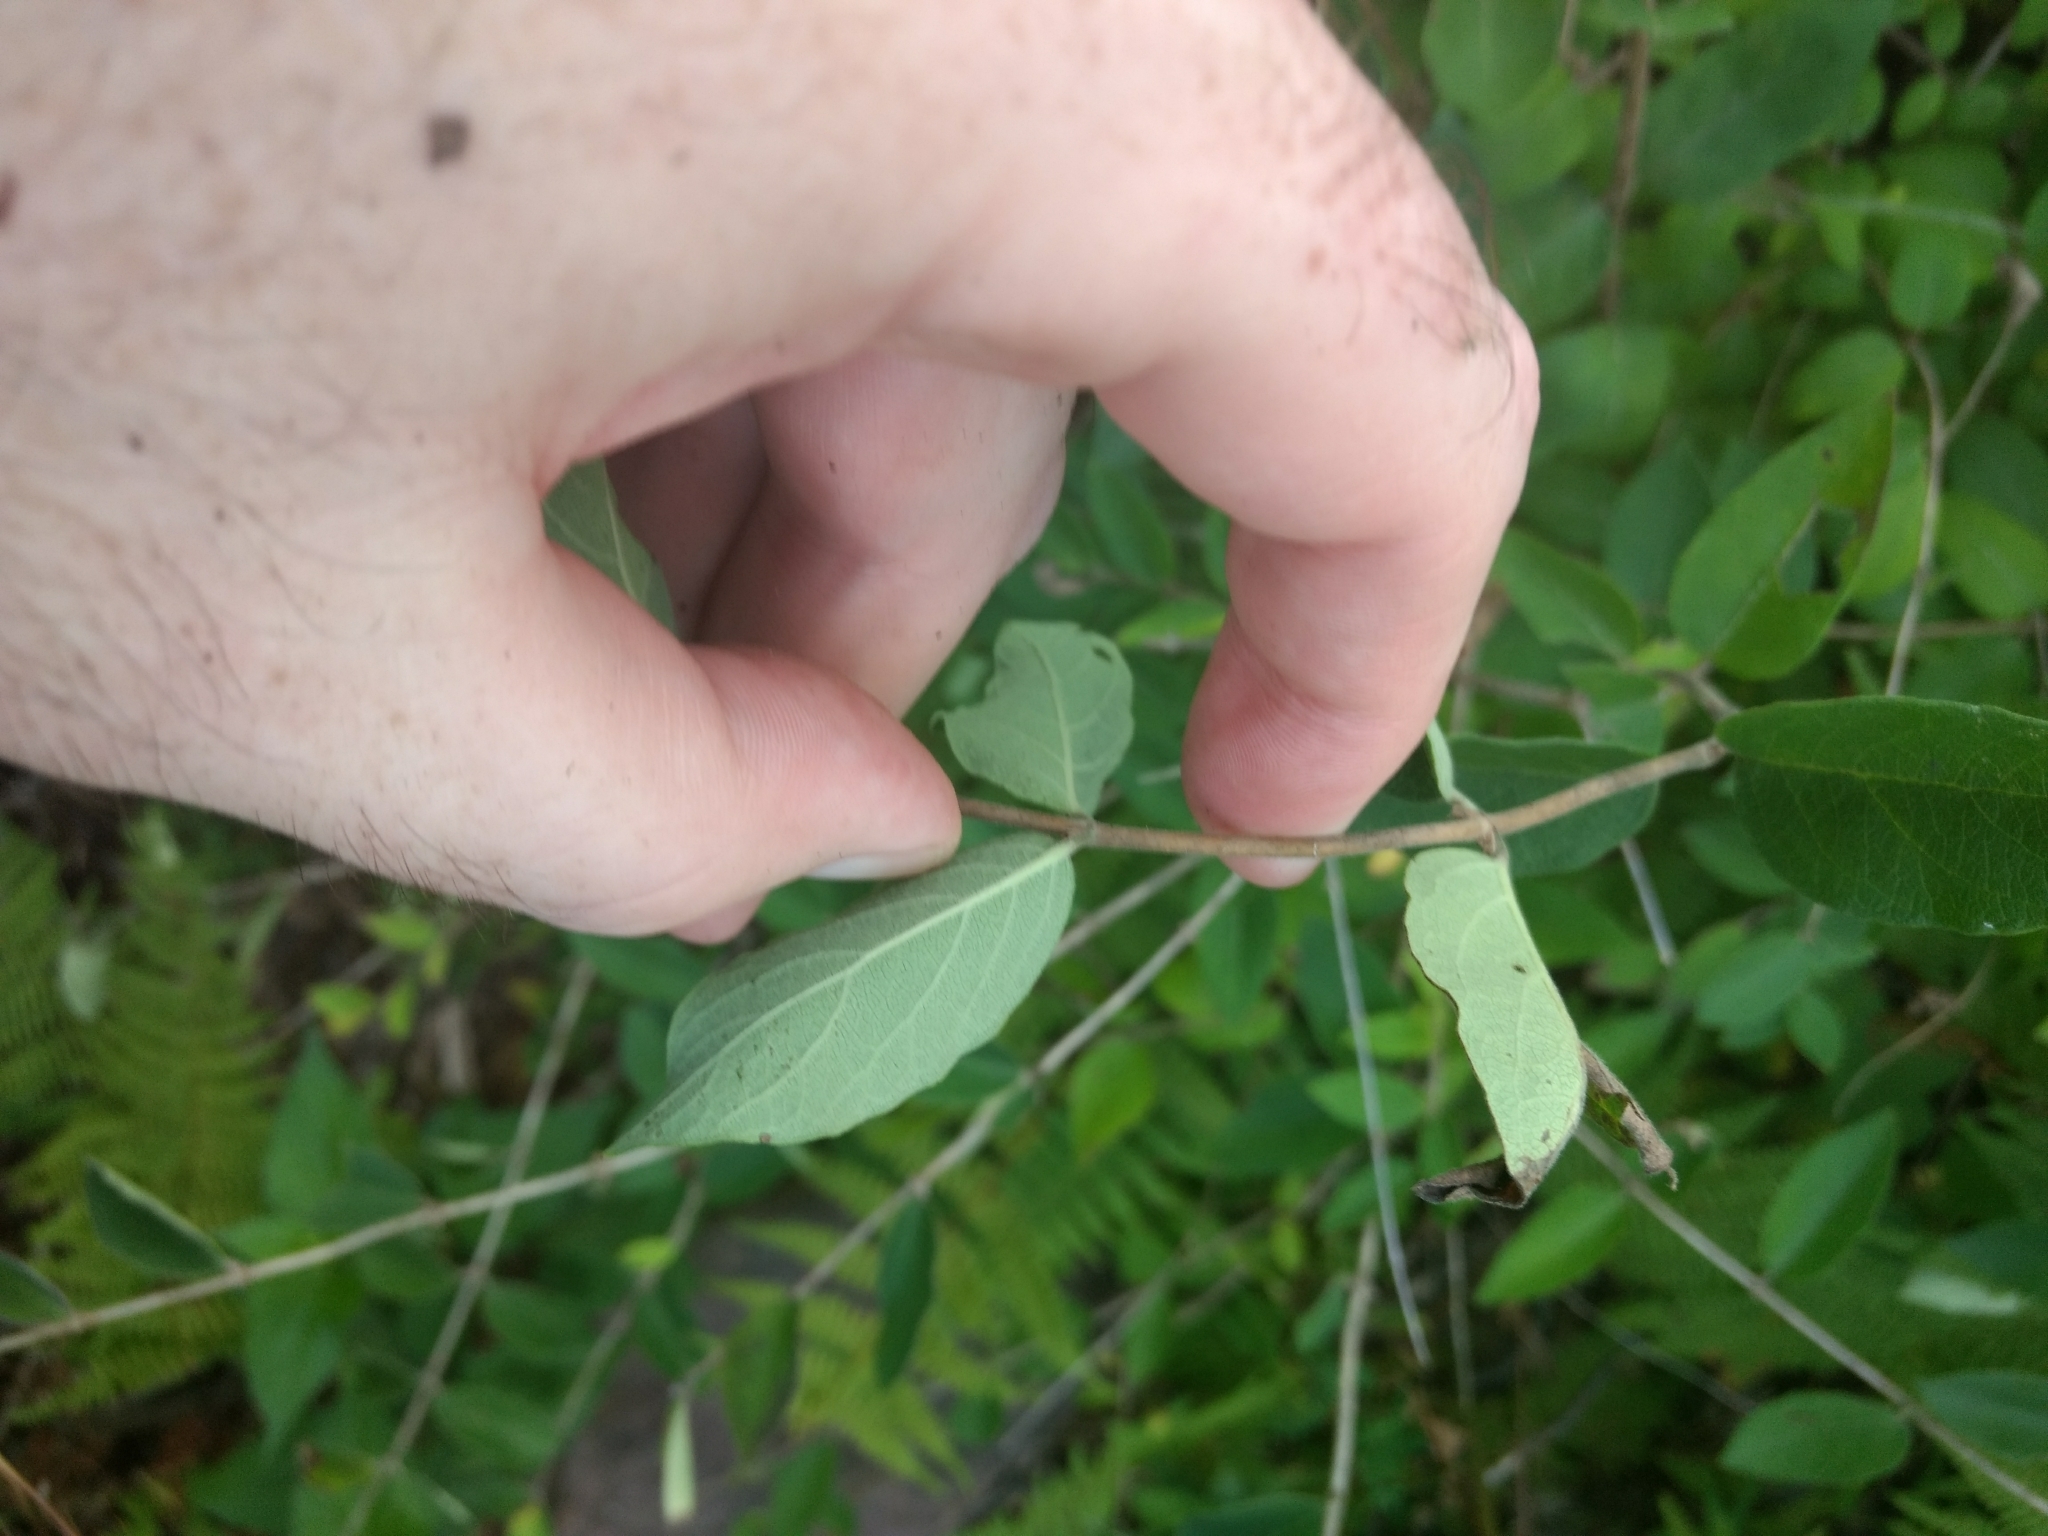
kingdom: Plantae
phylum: Tracheophyta
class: Magnoliopsida
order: Dipsacales
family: Caprifoliaceae
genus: Lonicera
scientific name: Lonicera morrowii
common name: Morrow's honeysuckle
